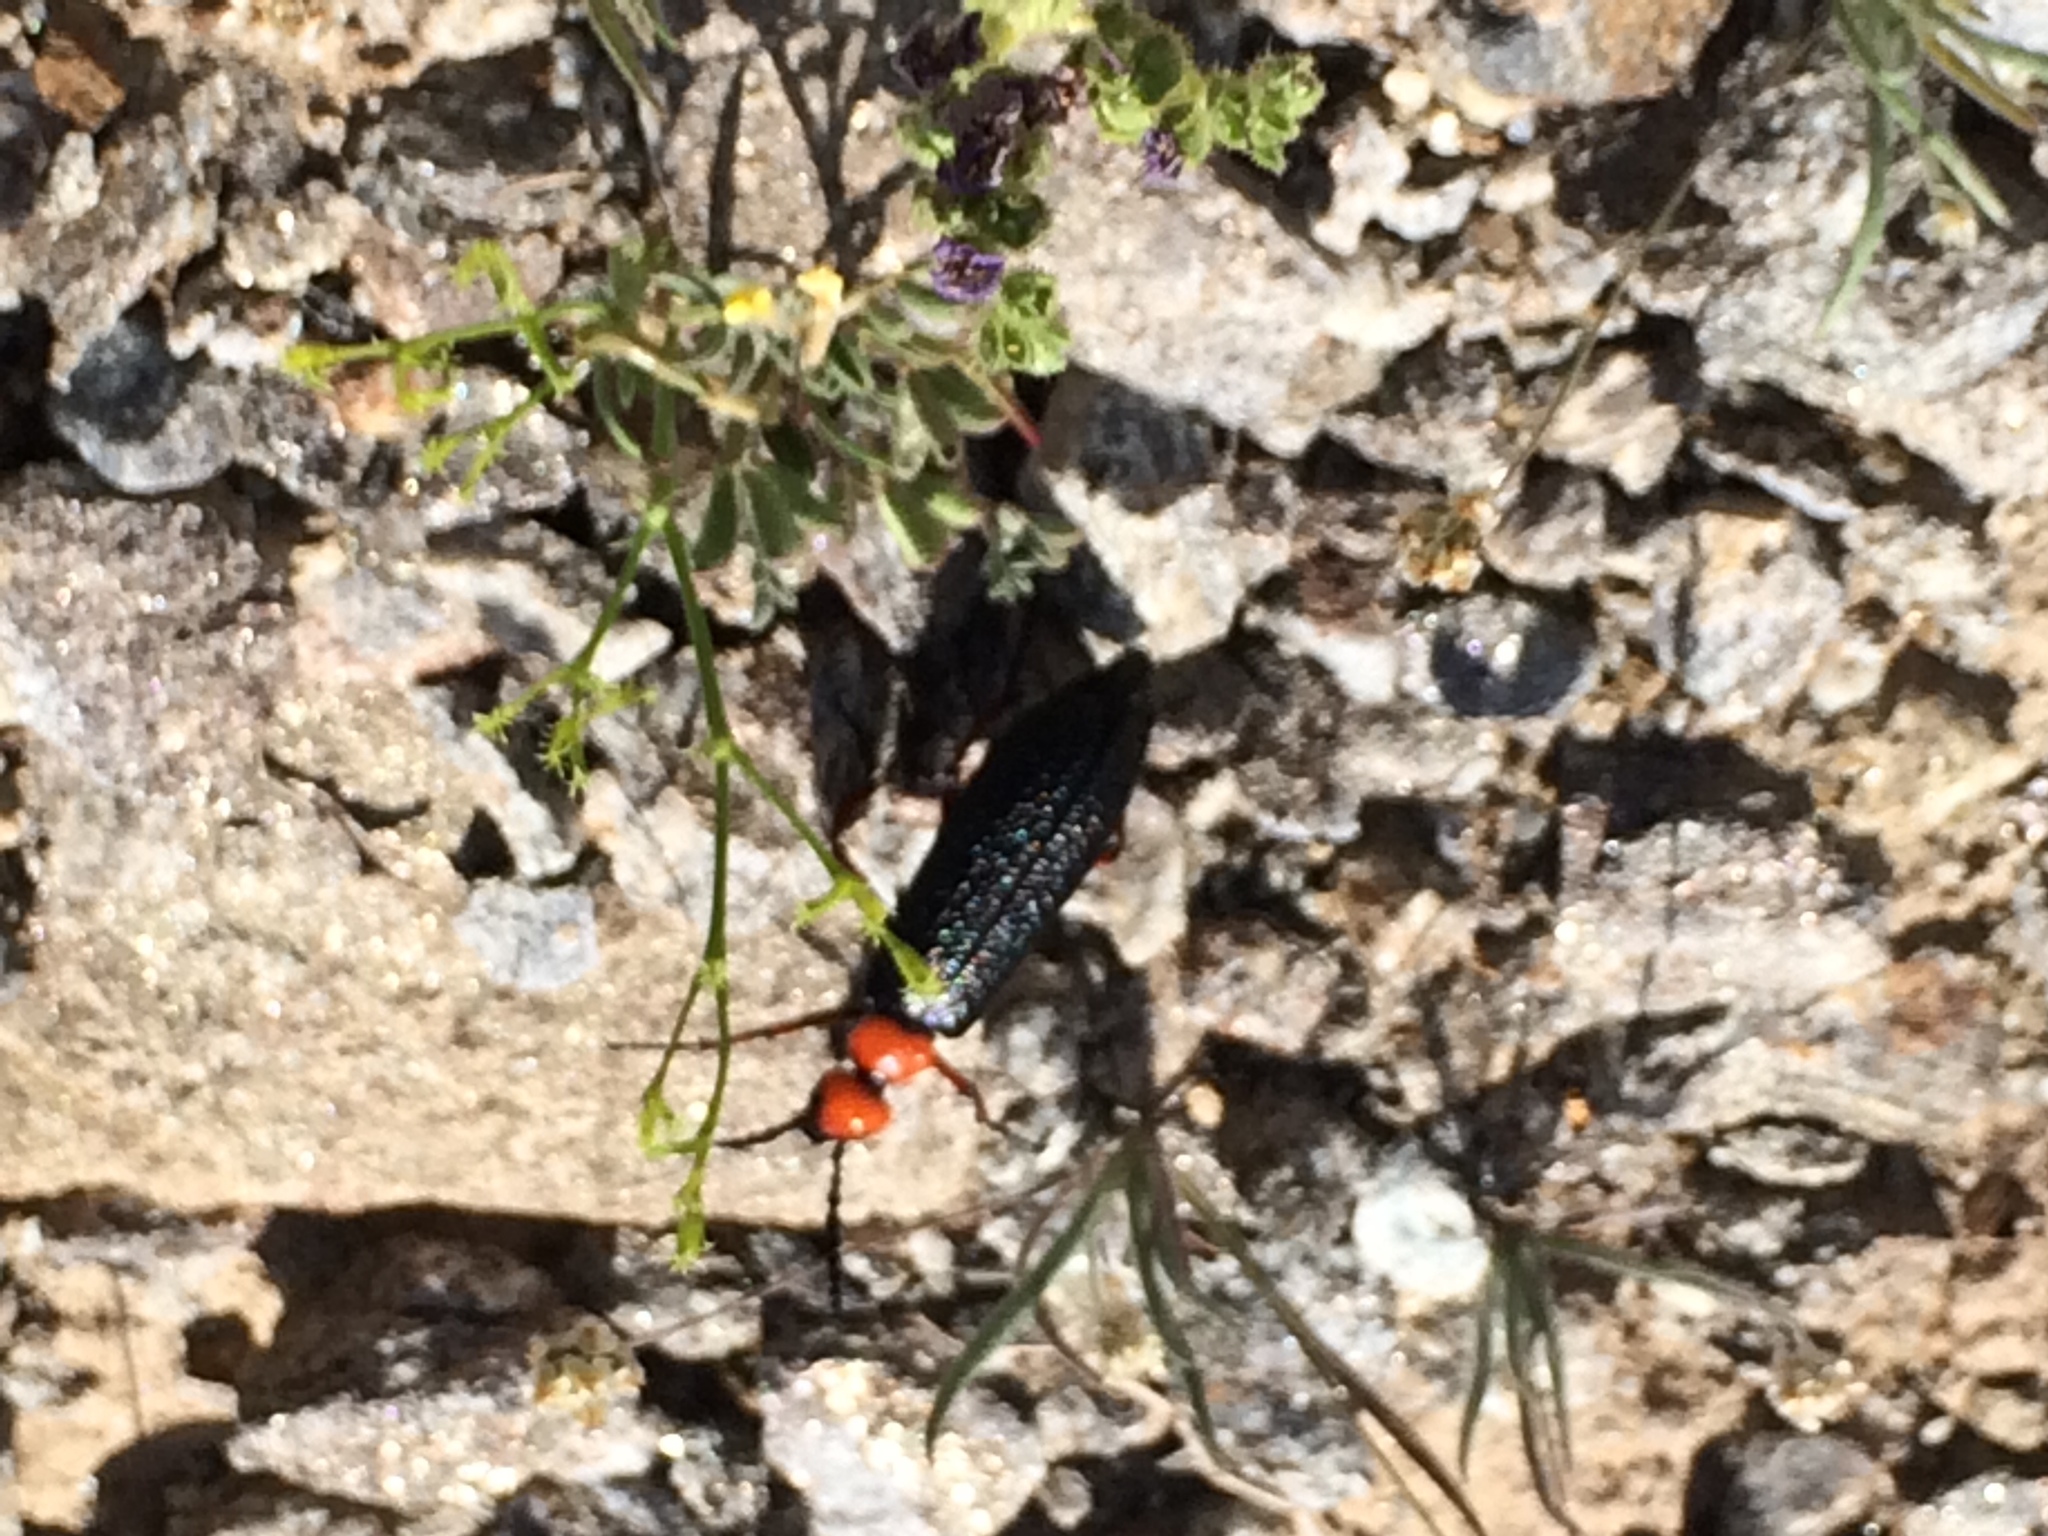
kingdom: Animalia
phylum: Arthropoda
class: Insecta
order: Coleoptera
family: Meloidae
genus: Lytta
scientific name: Lytta magister
